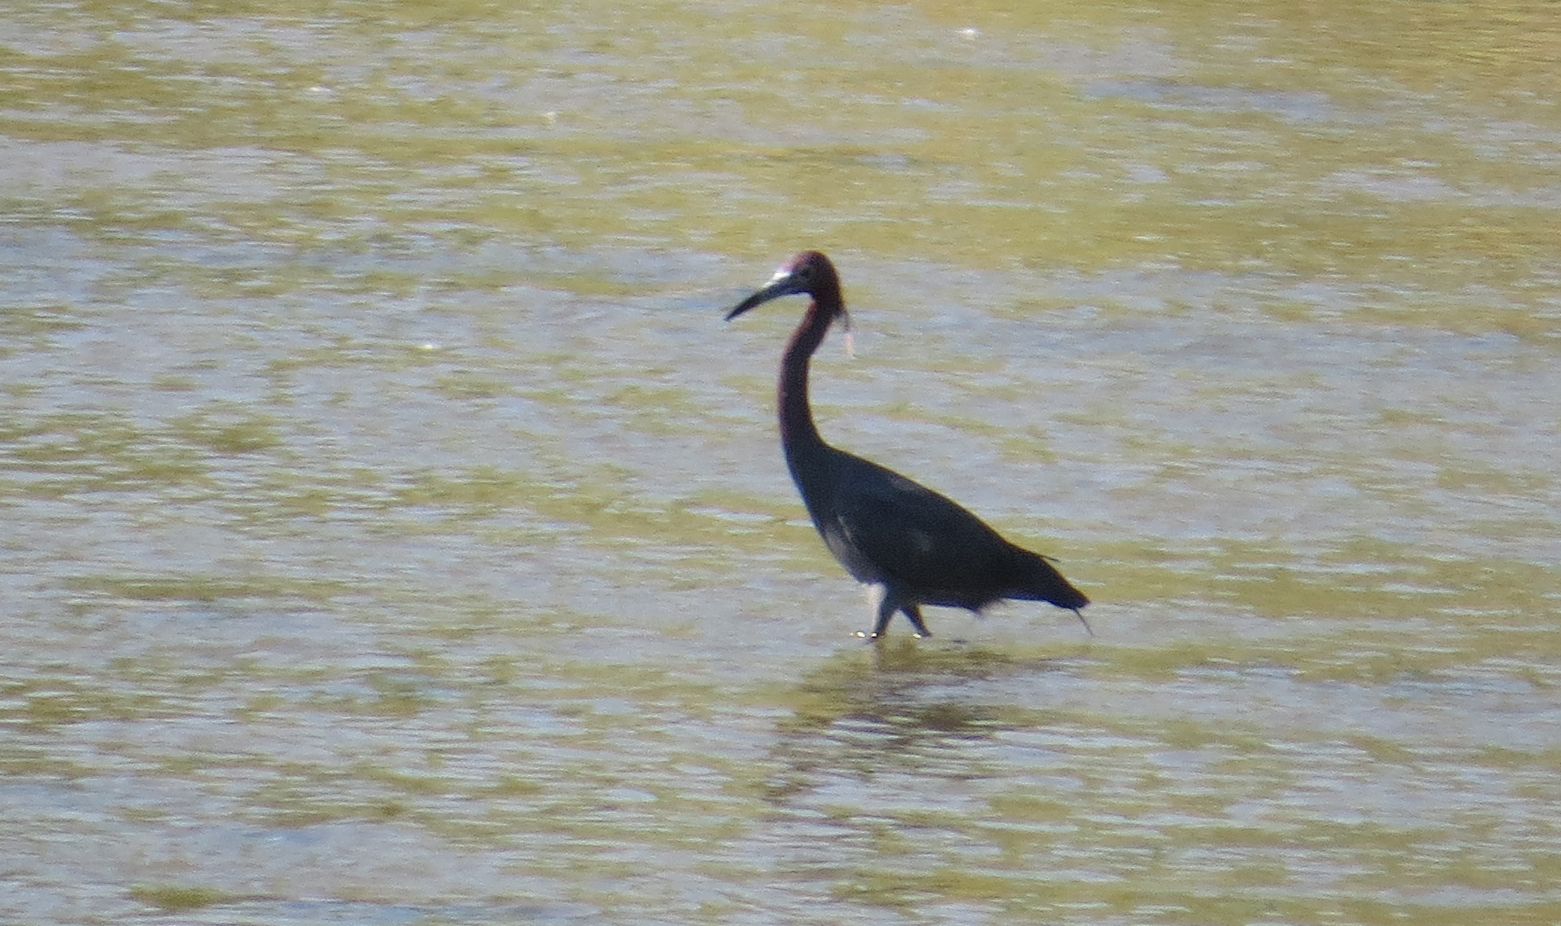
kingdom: Animalia
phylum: Chordata
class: Aves
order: Pelecaniformes
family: Ardeidae
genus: Egretta
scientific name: Egretta caerulea
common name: Little blue heron
